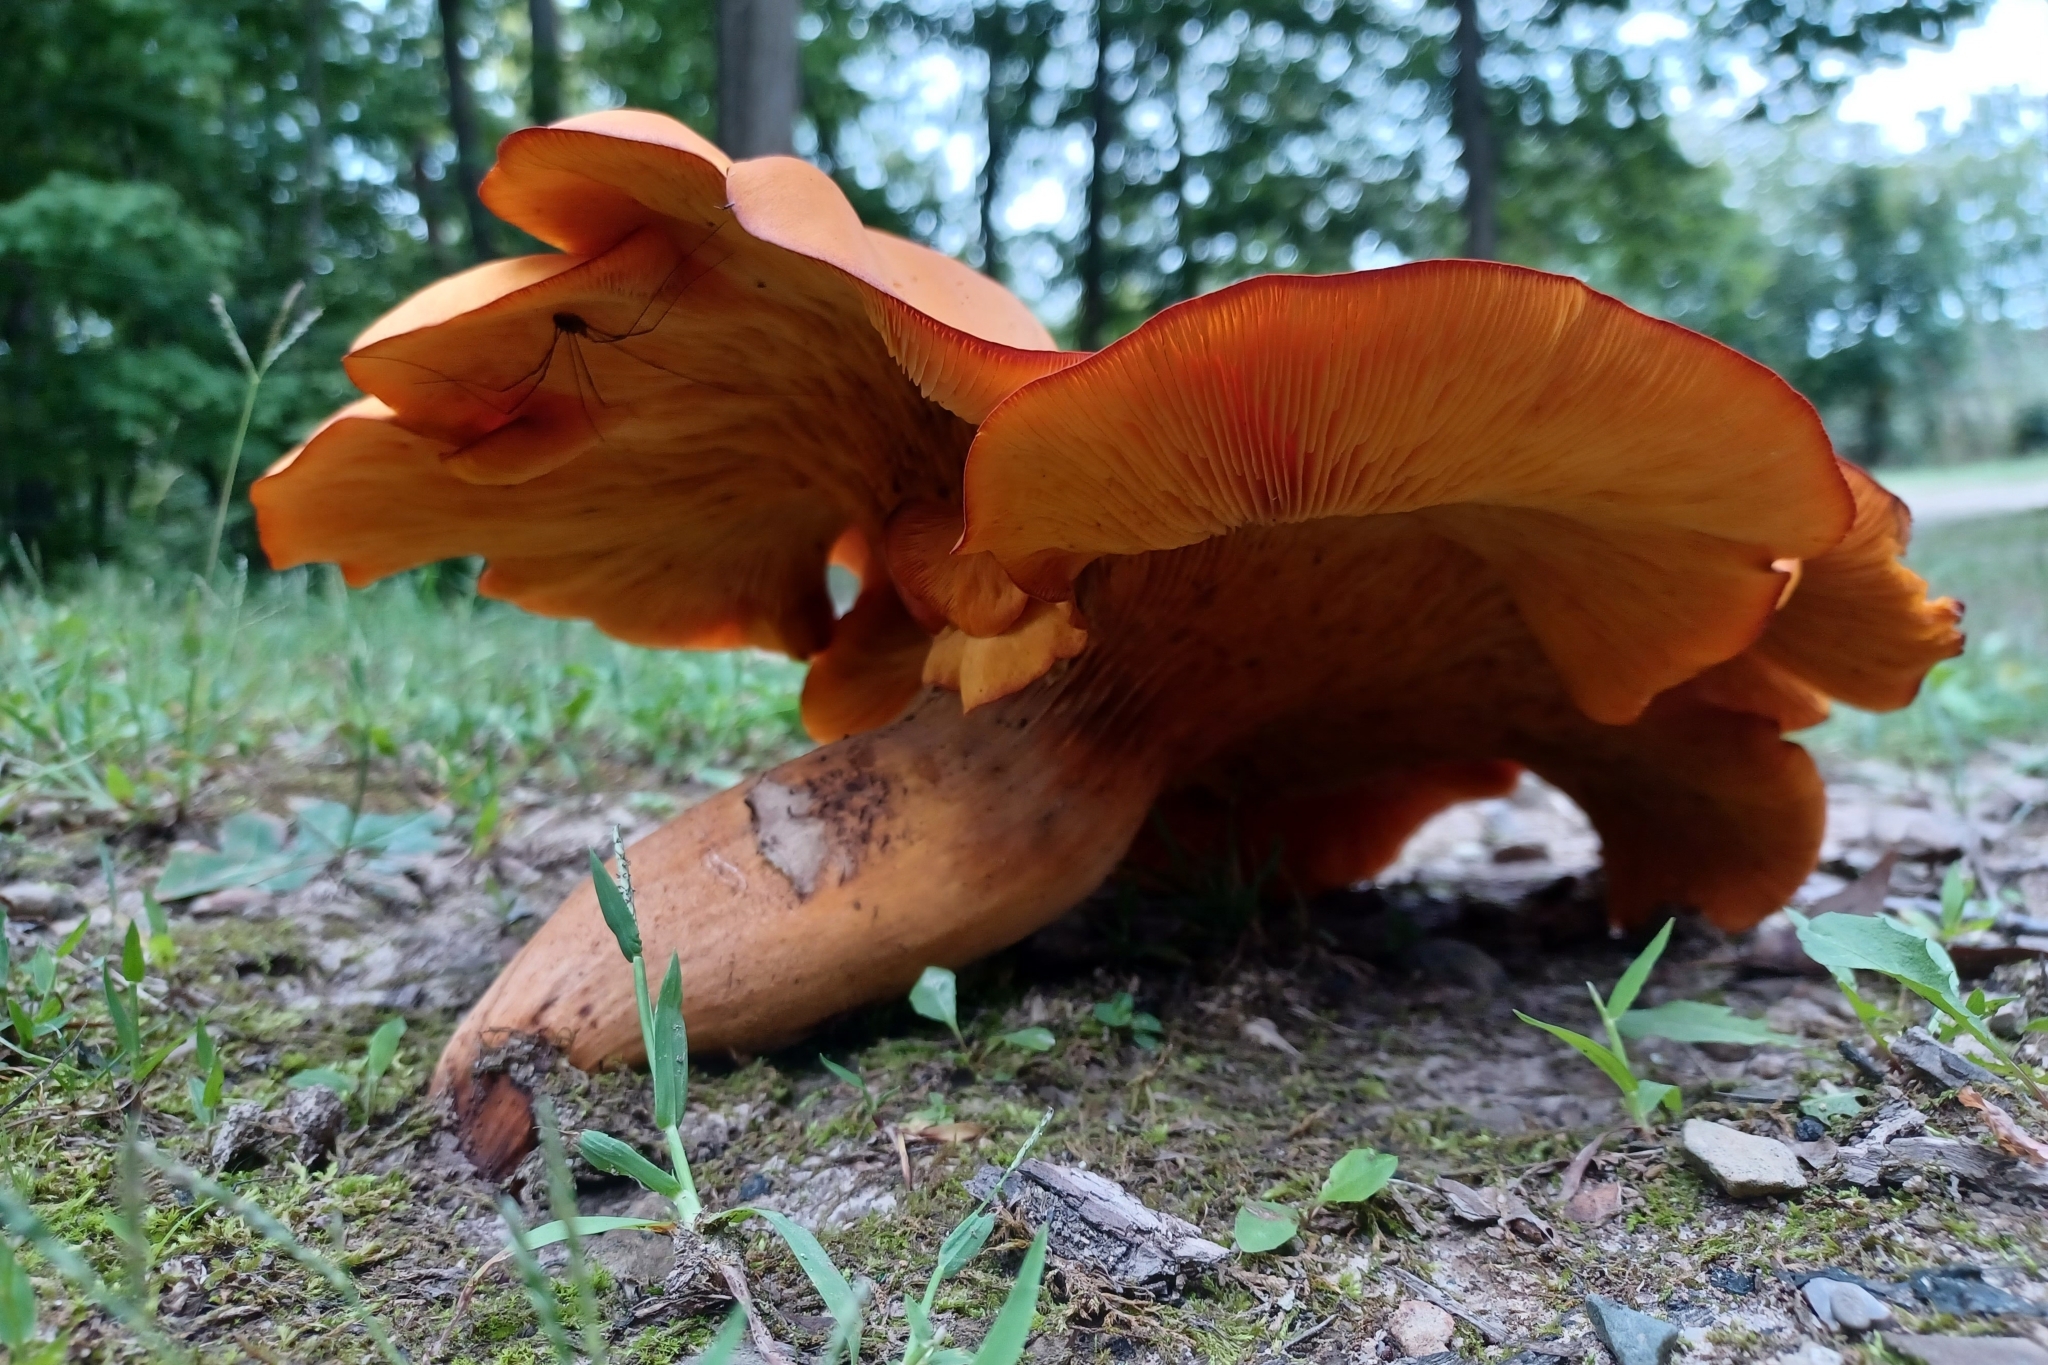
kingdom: Fungi
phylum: Basidiomycota
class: Agaricomycetes
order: Agaricales
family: Omphalotaceae
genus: Omphalotus
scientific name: Omphalotus illudens
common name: Jack o lantern
